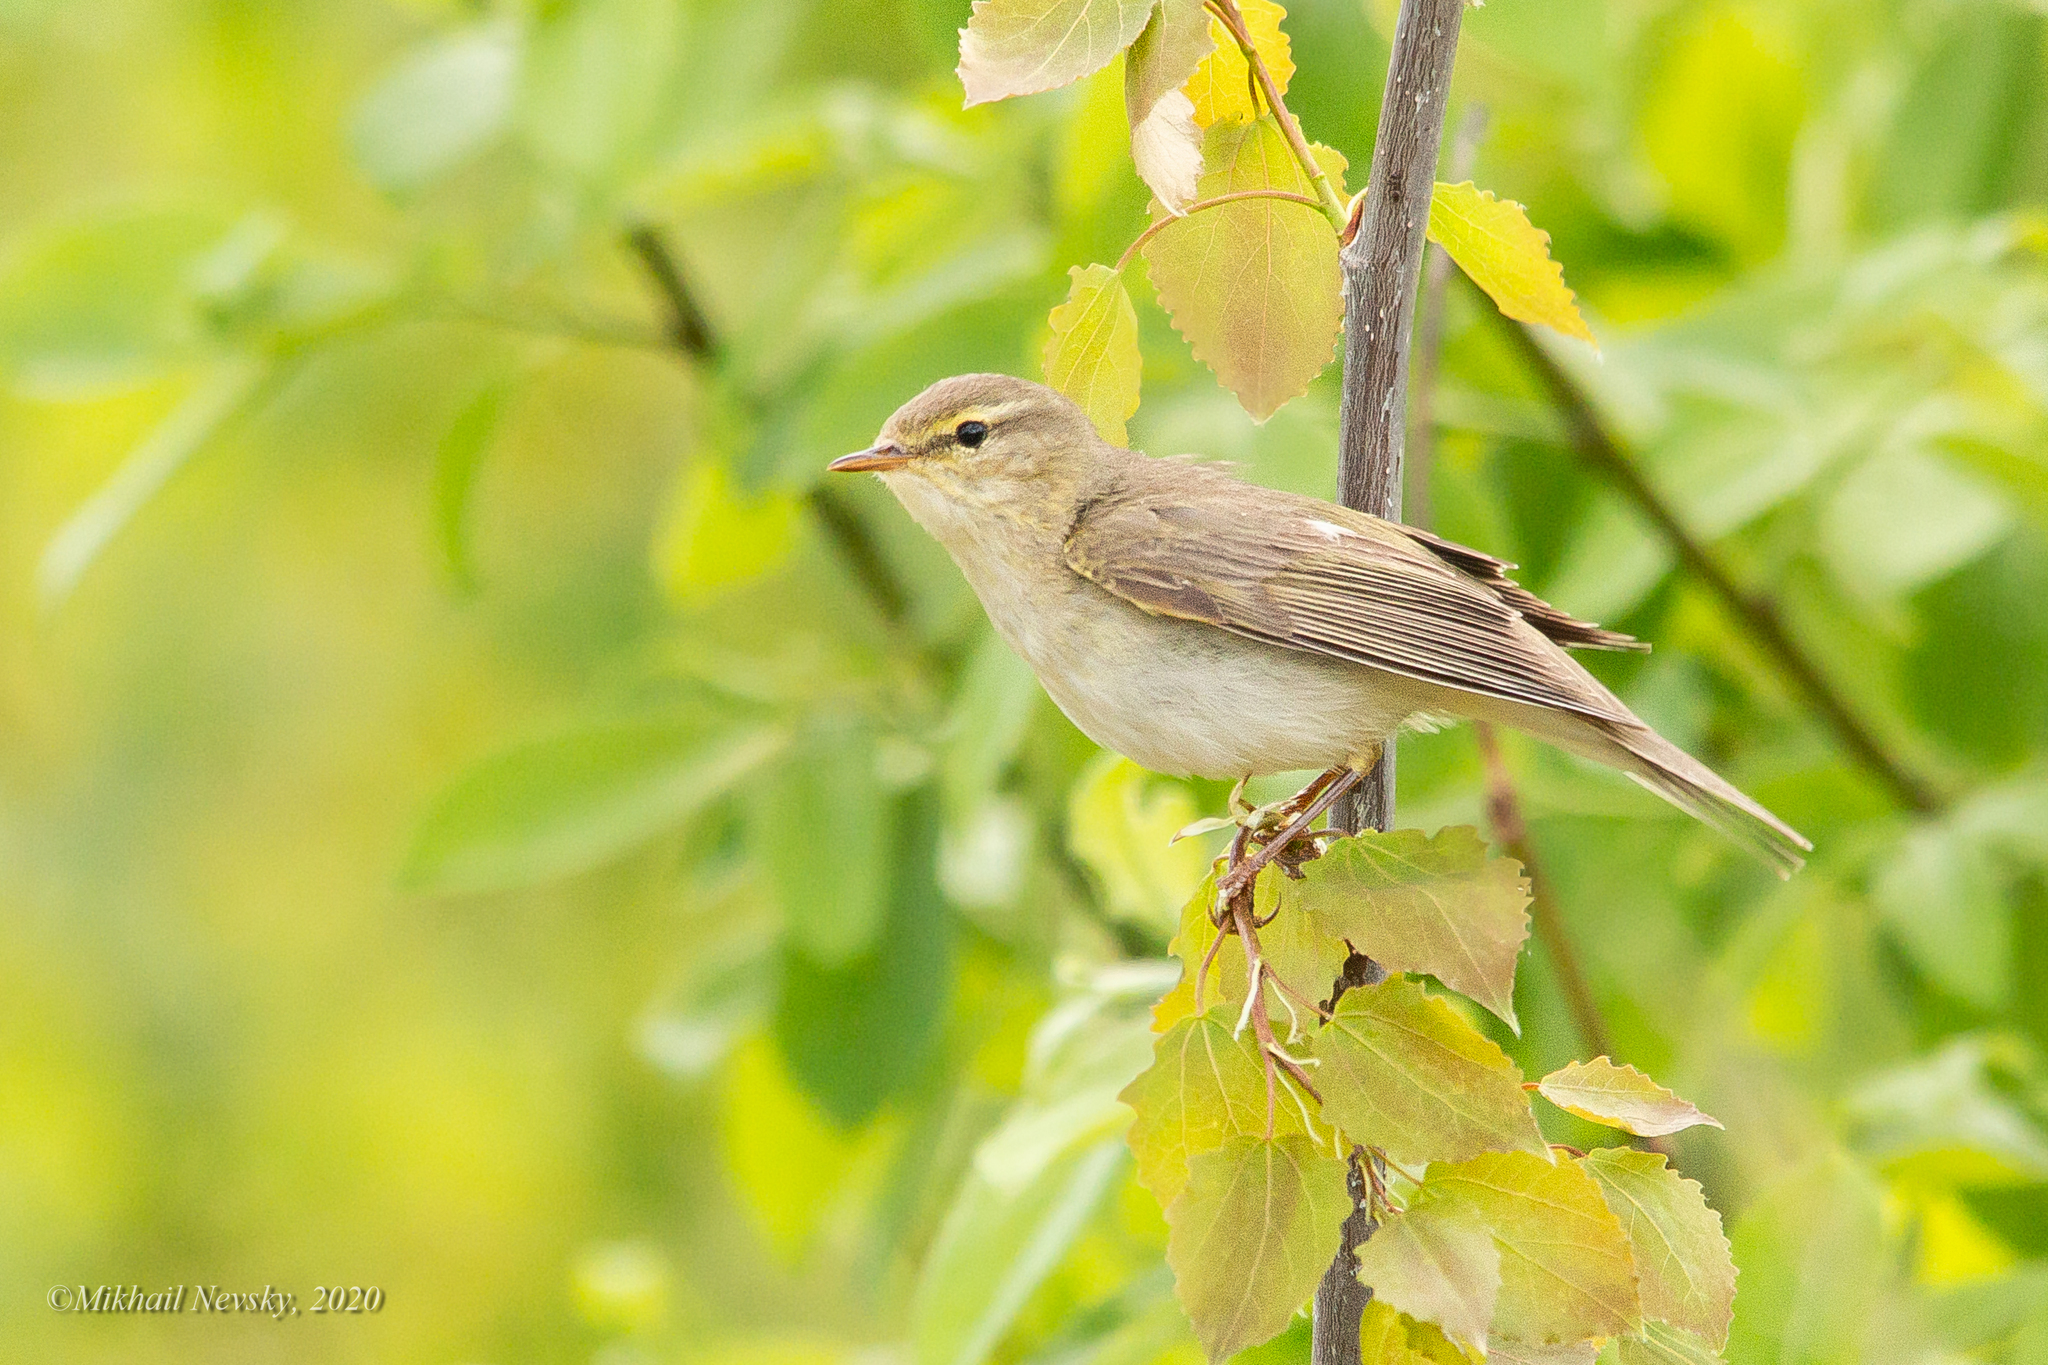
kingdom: Animalia
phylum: Chordata
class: Aves
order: Passeriformes
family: Phylloscopidae
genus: Phylloscopus
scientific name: Phylloscopus trochilus
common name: Willow warbler
